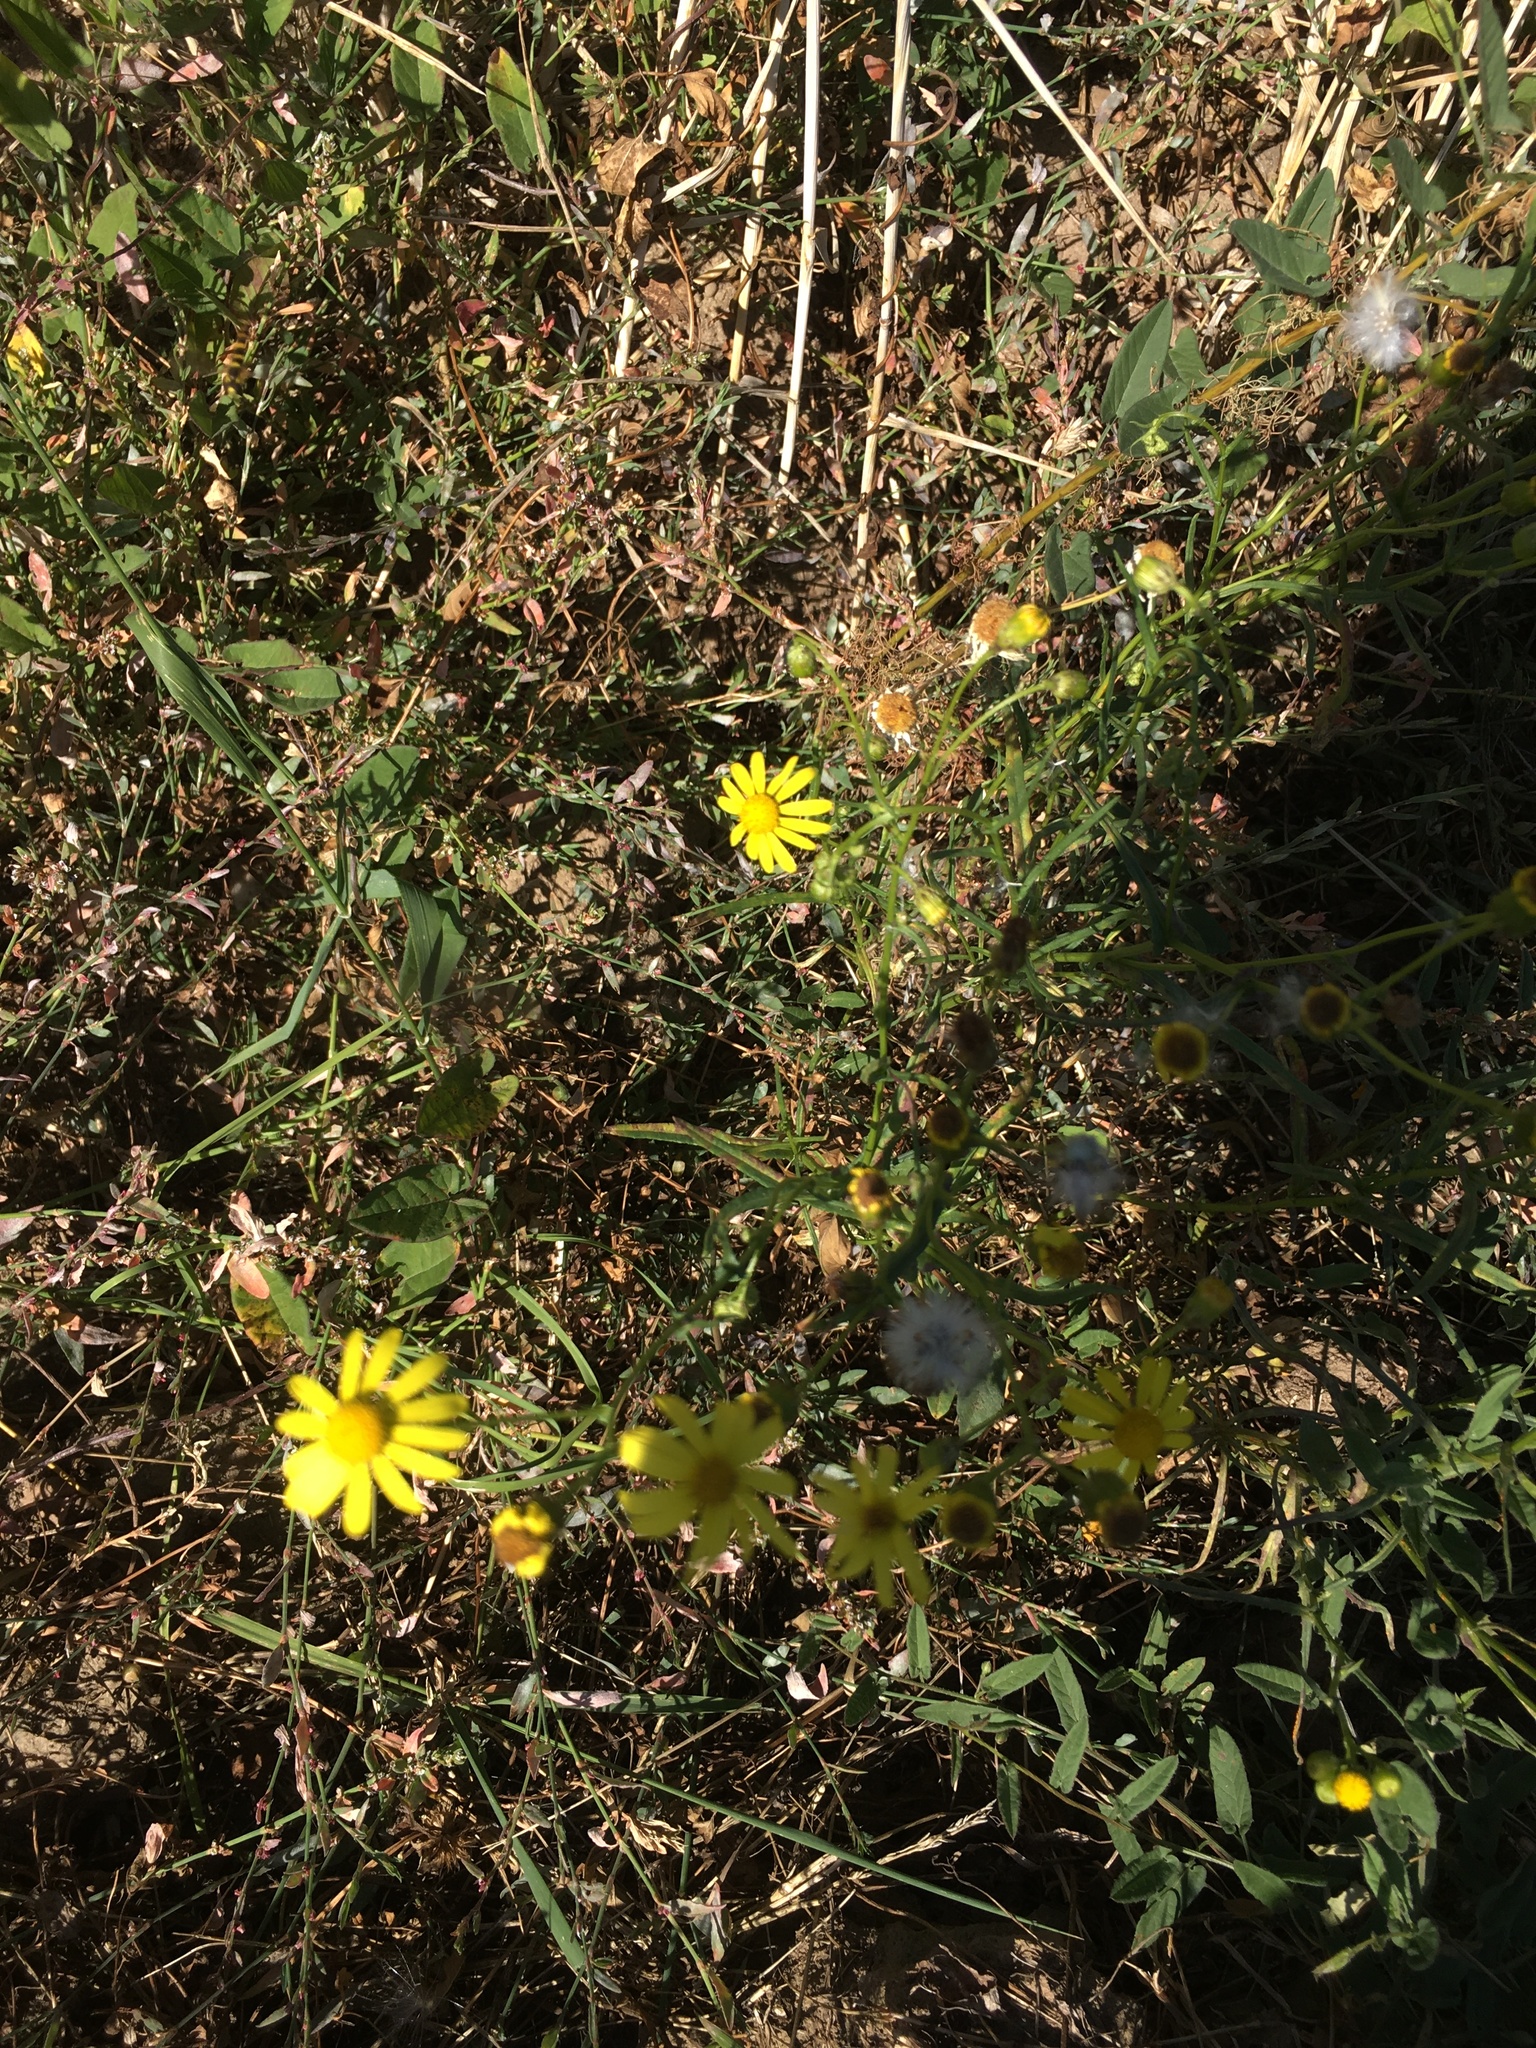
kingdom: Plantae
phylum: Tracheophyta
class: Magnoliopsida
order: Asterales
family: Asteraceae
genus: Senecio
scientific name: Senecio inaequidens
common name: Narrow-leaved ragwort
